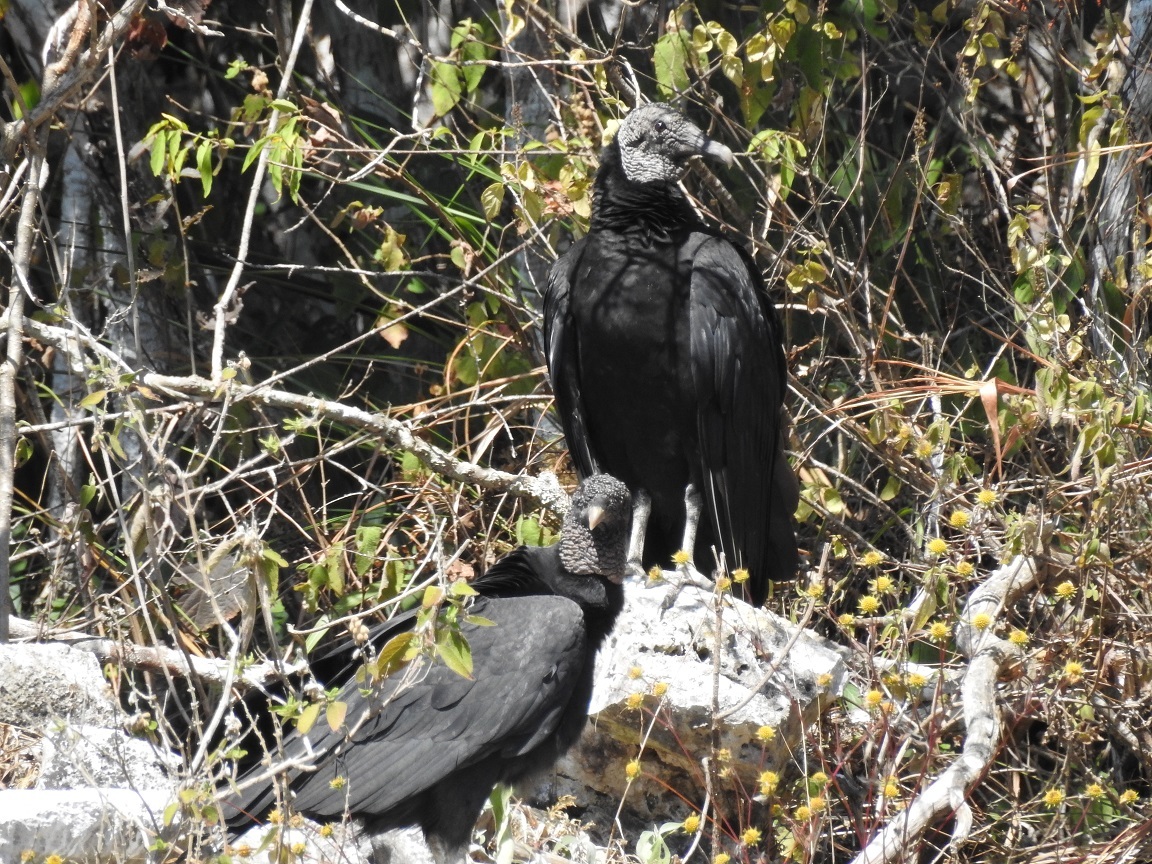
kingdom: Animalia
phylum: Chordata
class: Aves
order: Accipitriformes
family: Cathartidae
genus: Coragyps
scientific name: Coragyps atratus
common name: Black vulture
